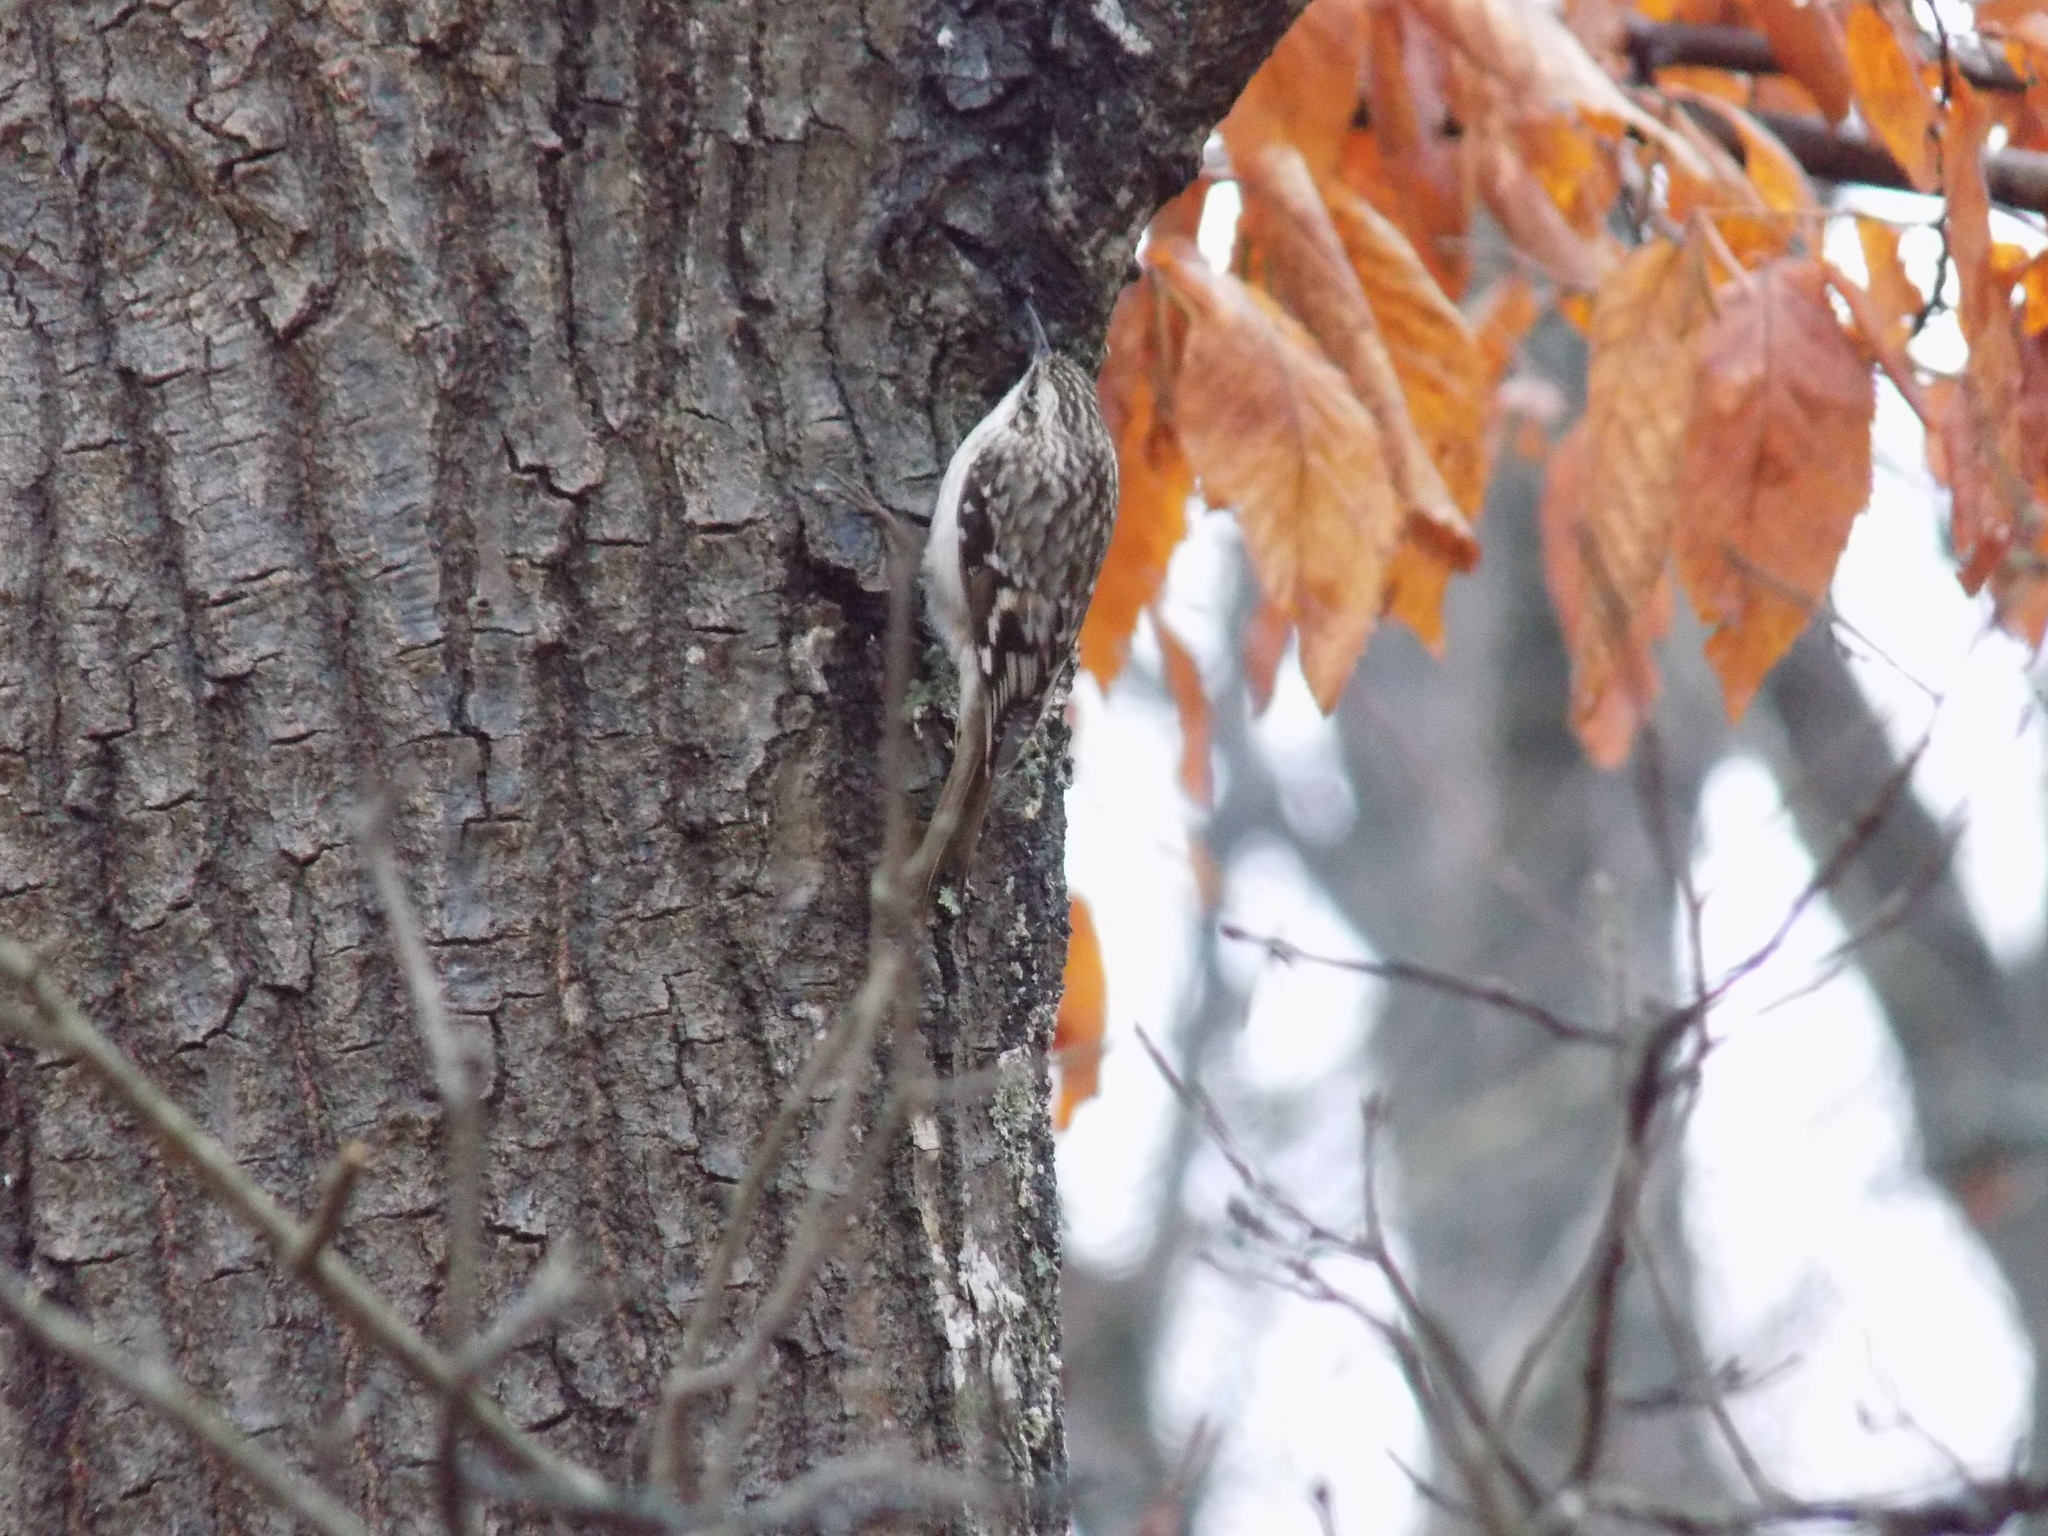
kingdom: Animalia
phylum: Chordata
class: Aves
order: Passeriformes
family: Certhiidae
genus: Certhia
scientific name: Certhia americana
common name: Brown creeper
